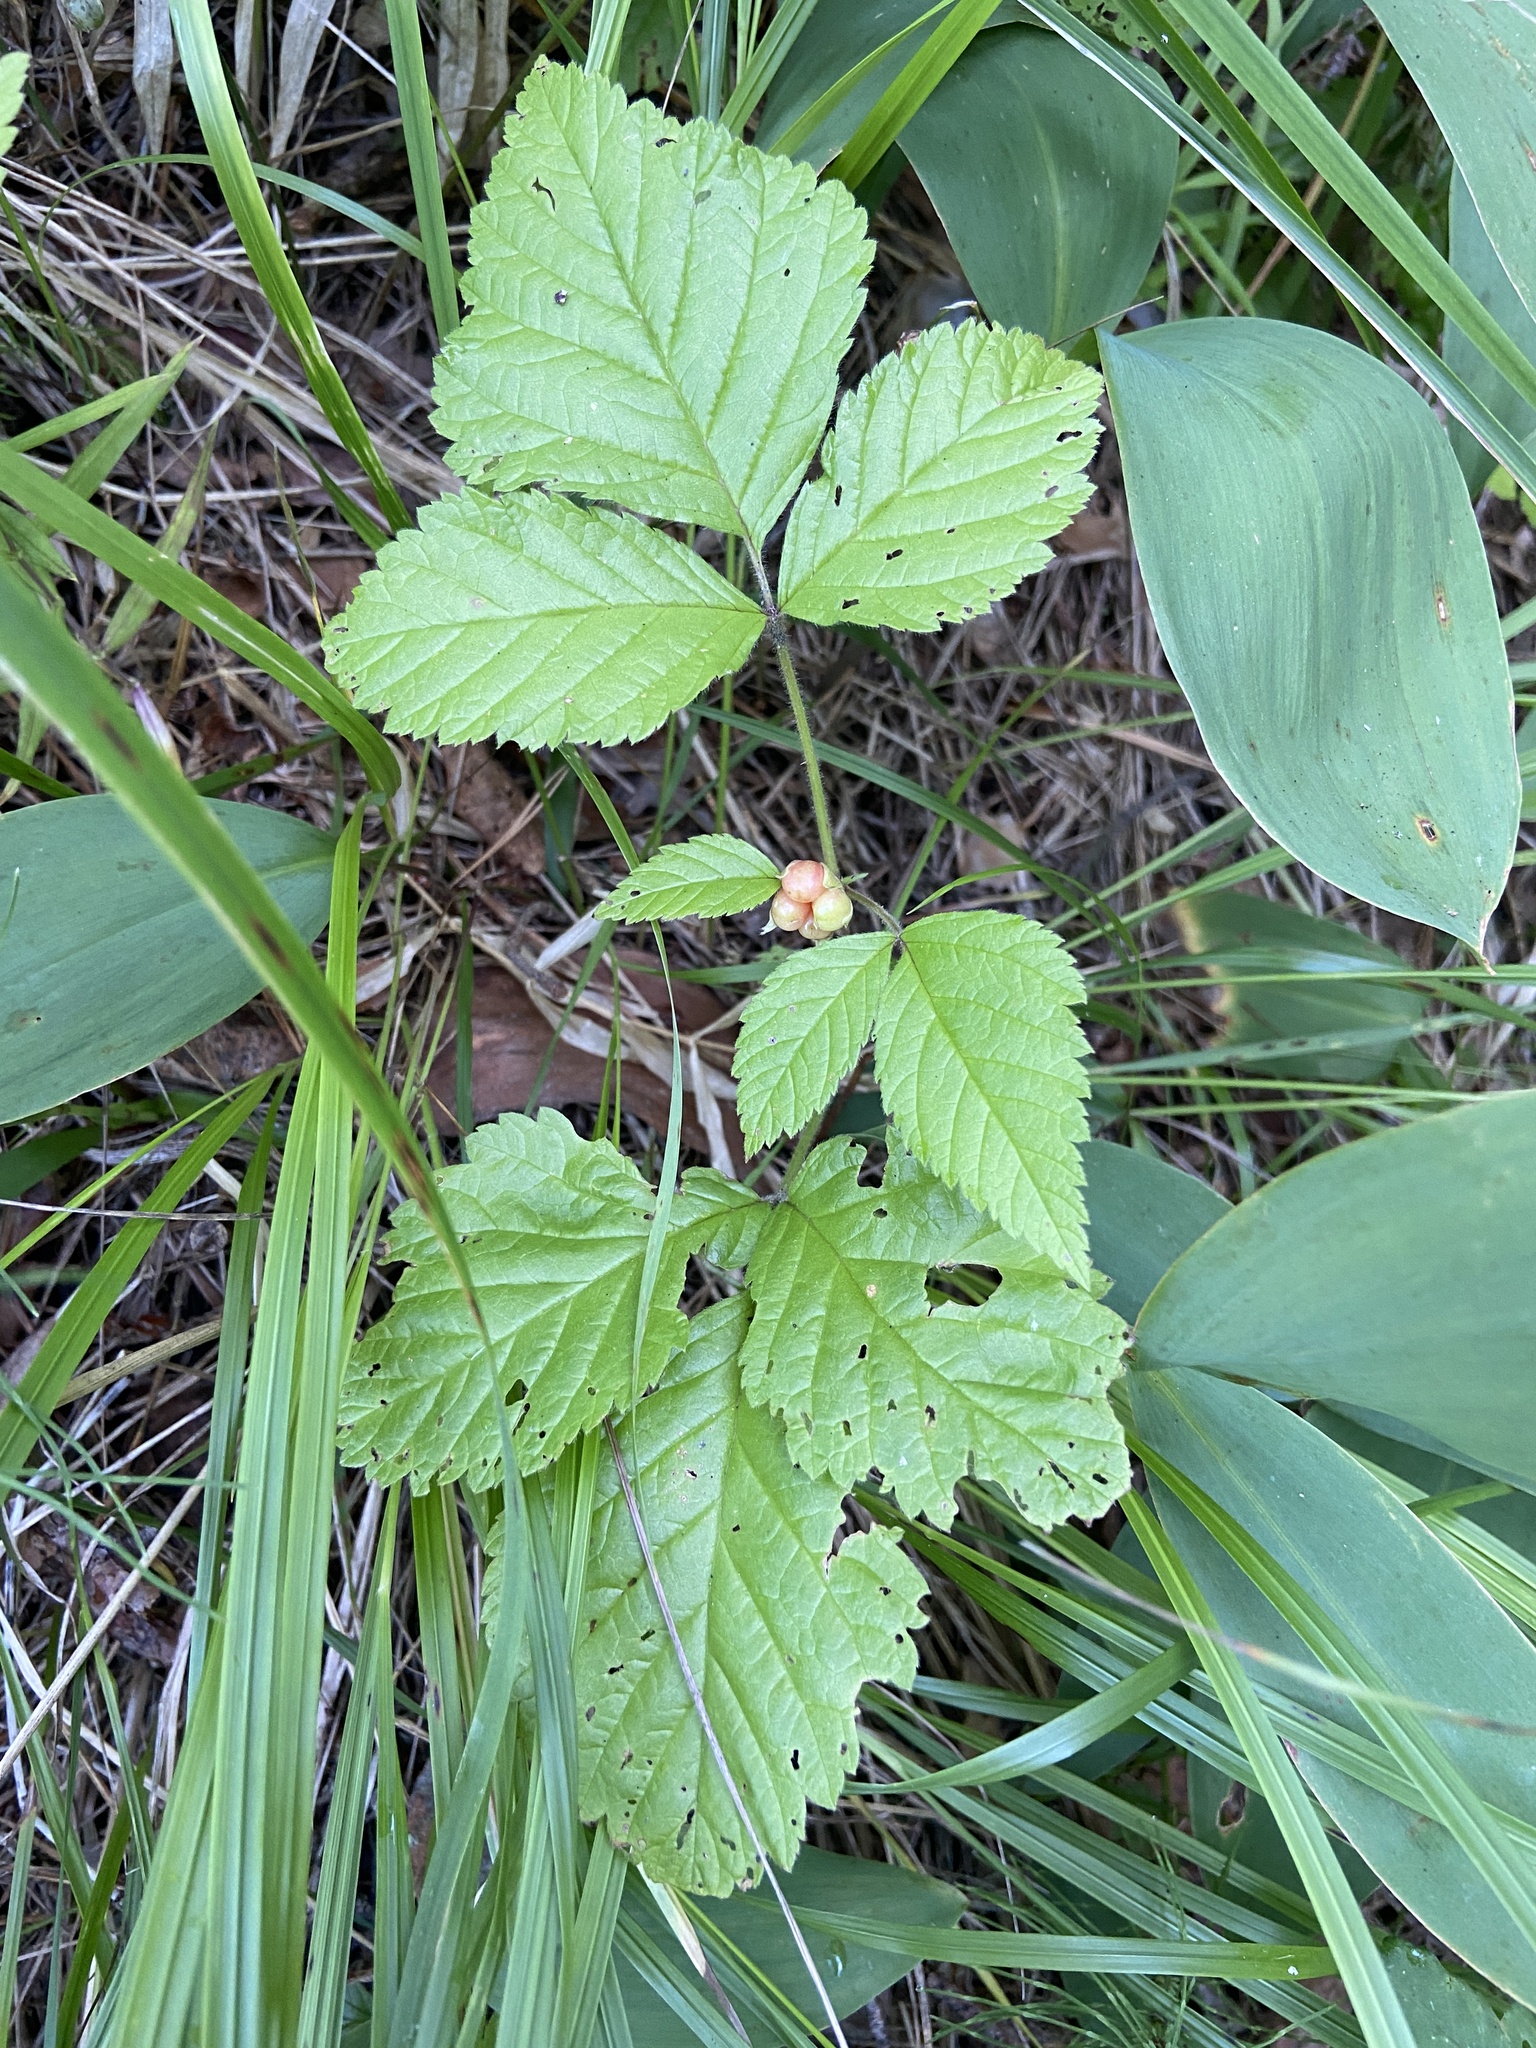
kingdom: Plantae
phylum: Tracheophyta
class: Magnoliopsida
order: Rosales
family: Rosaceae
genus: Rubus
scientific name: Rubus saxatilis
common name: Stone bramble
